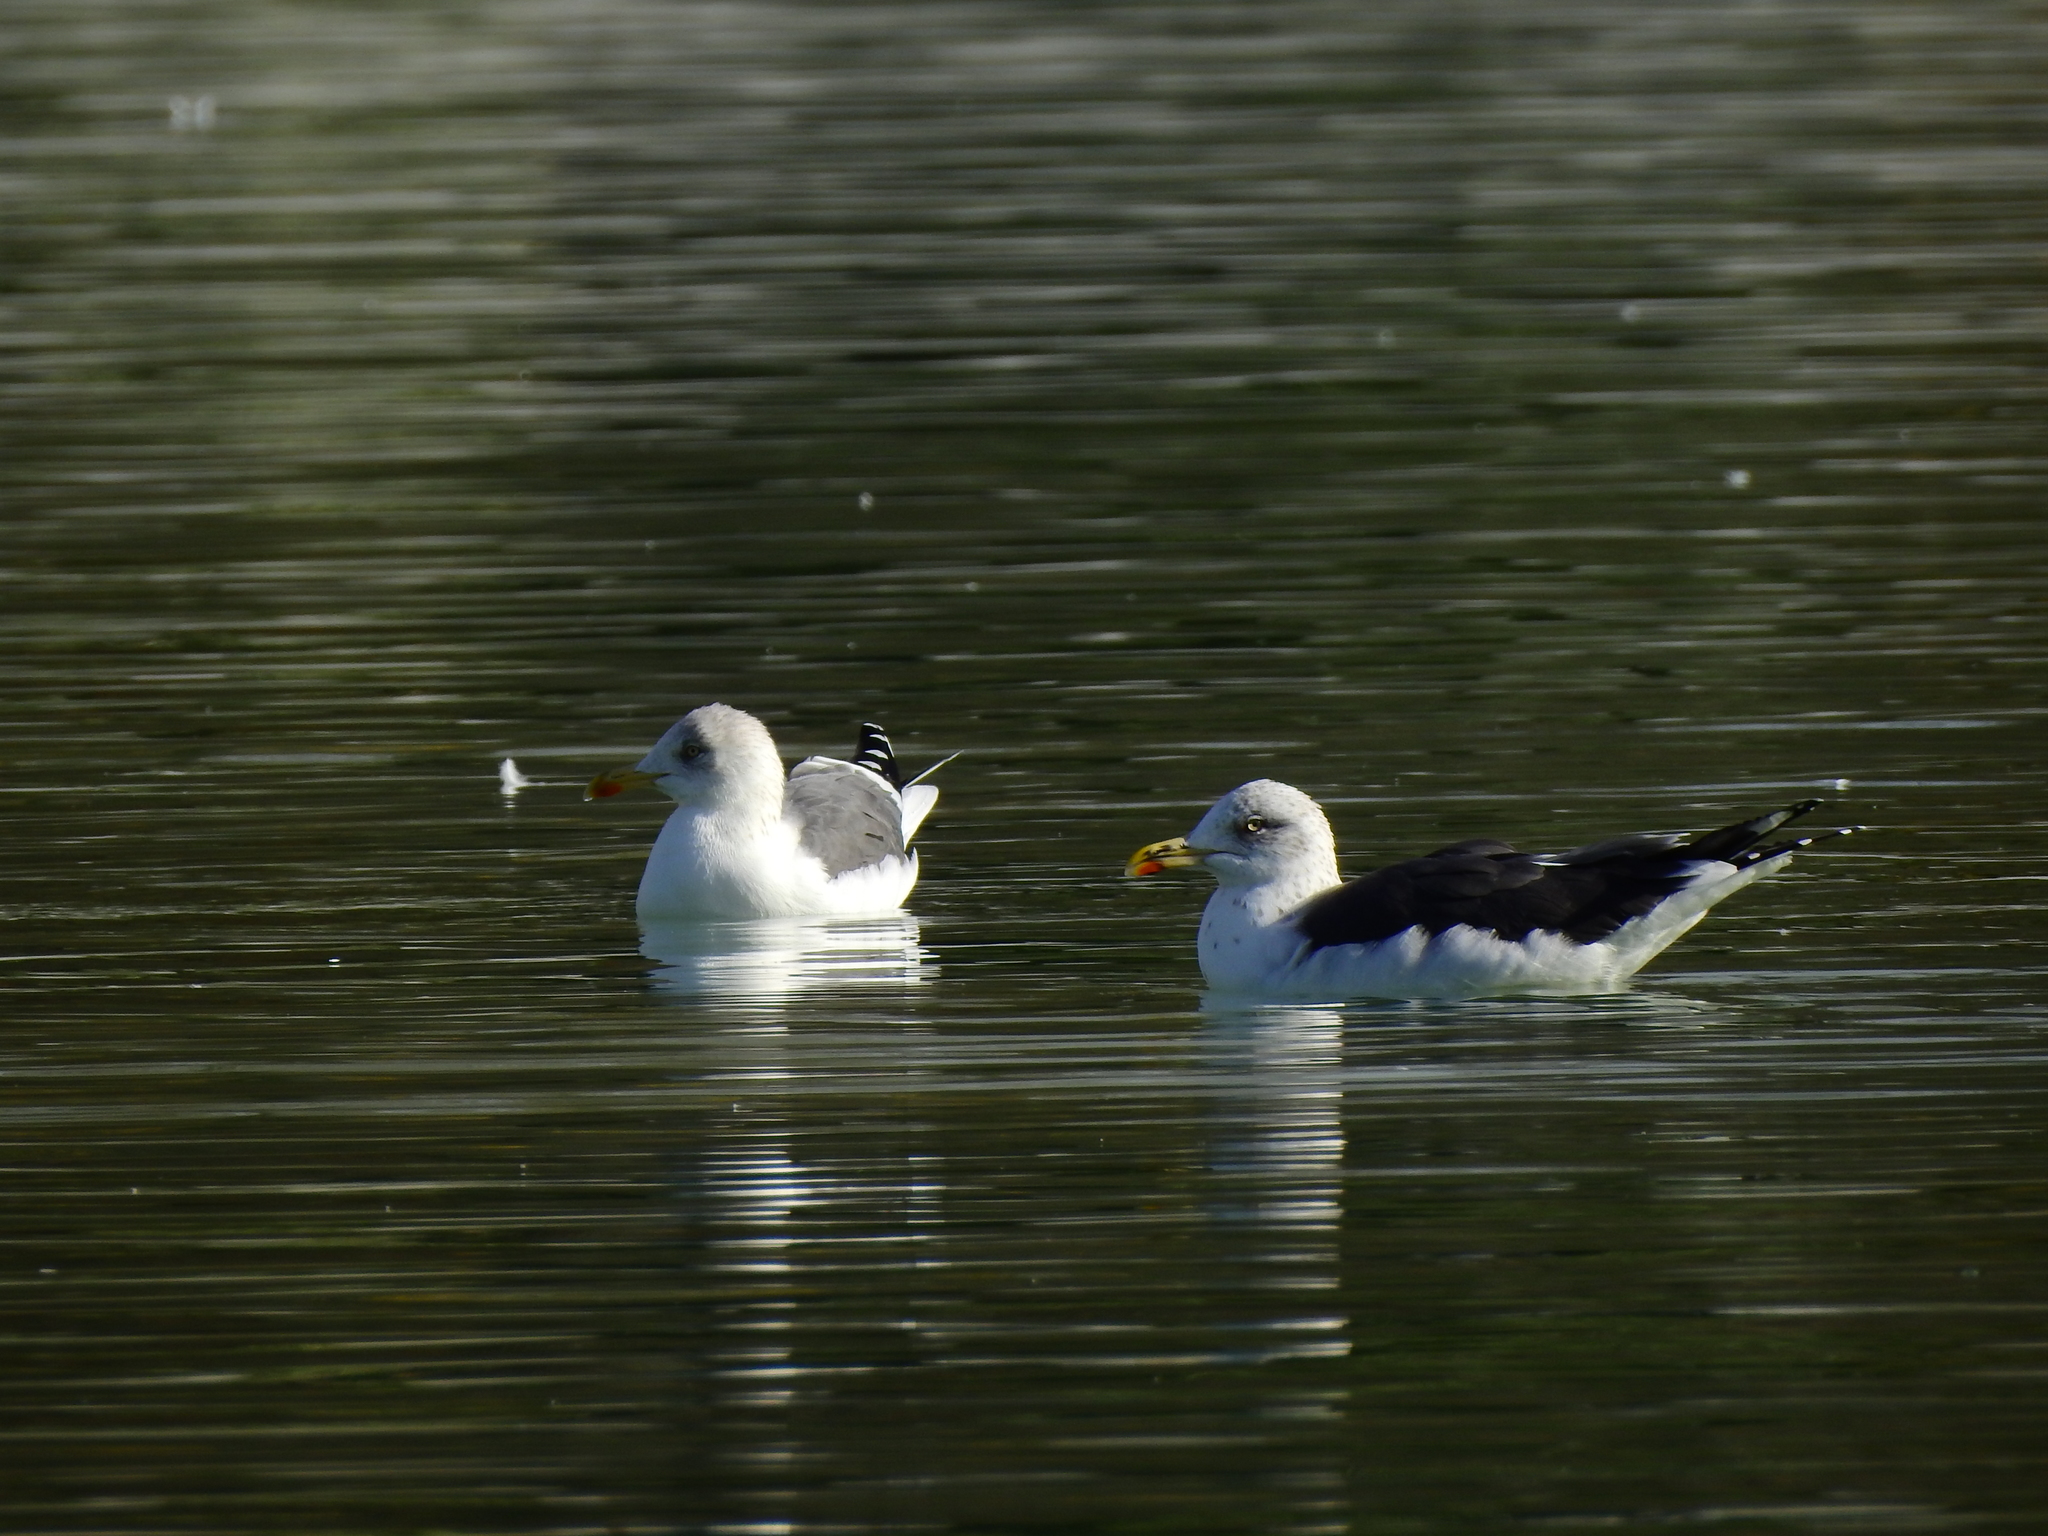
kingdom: Animalia
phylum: Chordata
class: Aves
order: Charadriiformes
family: Laridae
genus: Larus
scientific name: Larus fuscus
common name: Lesser black-backed gull
